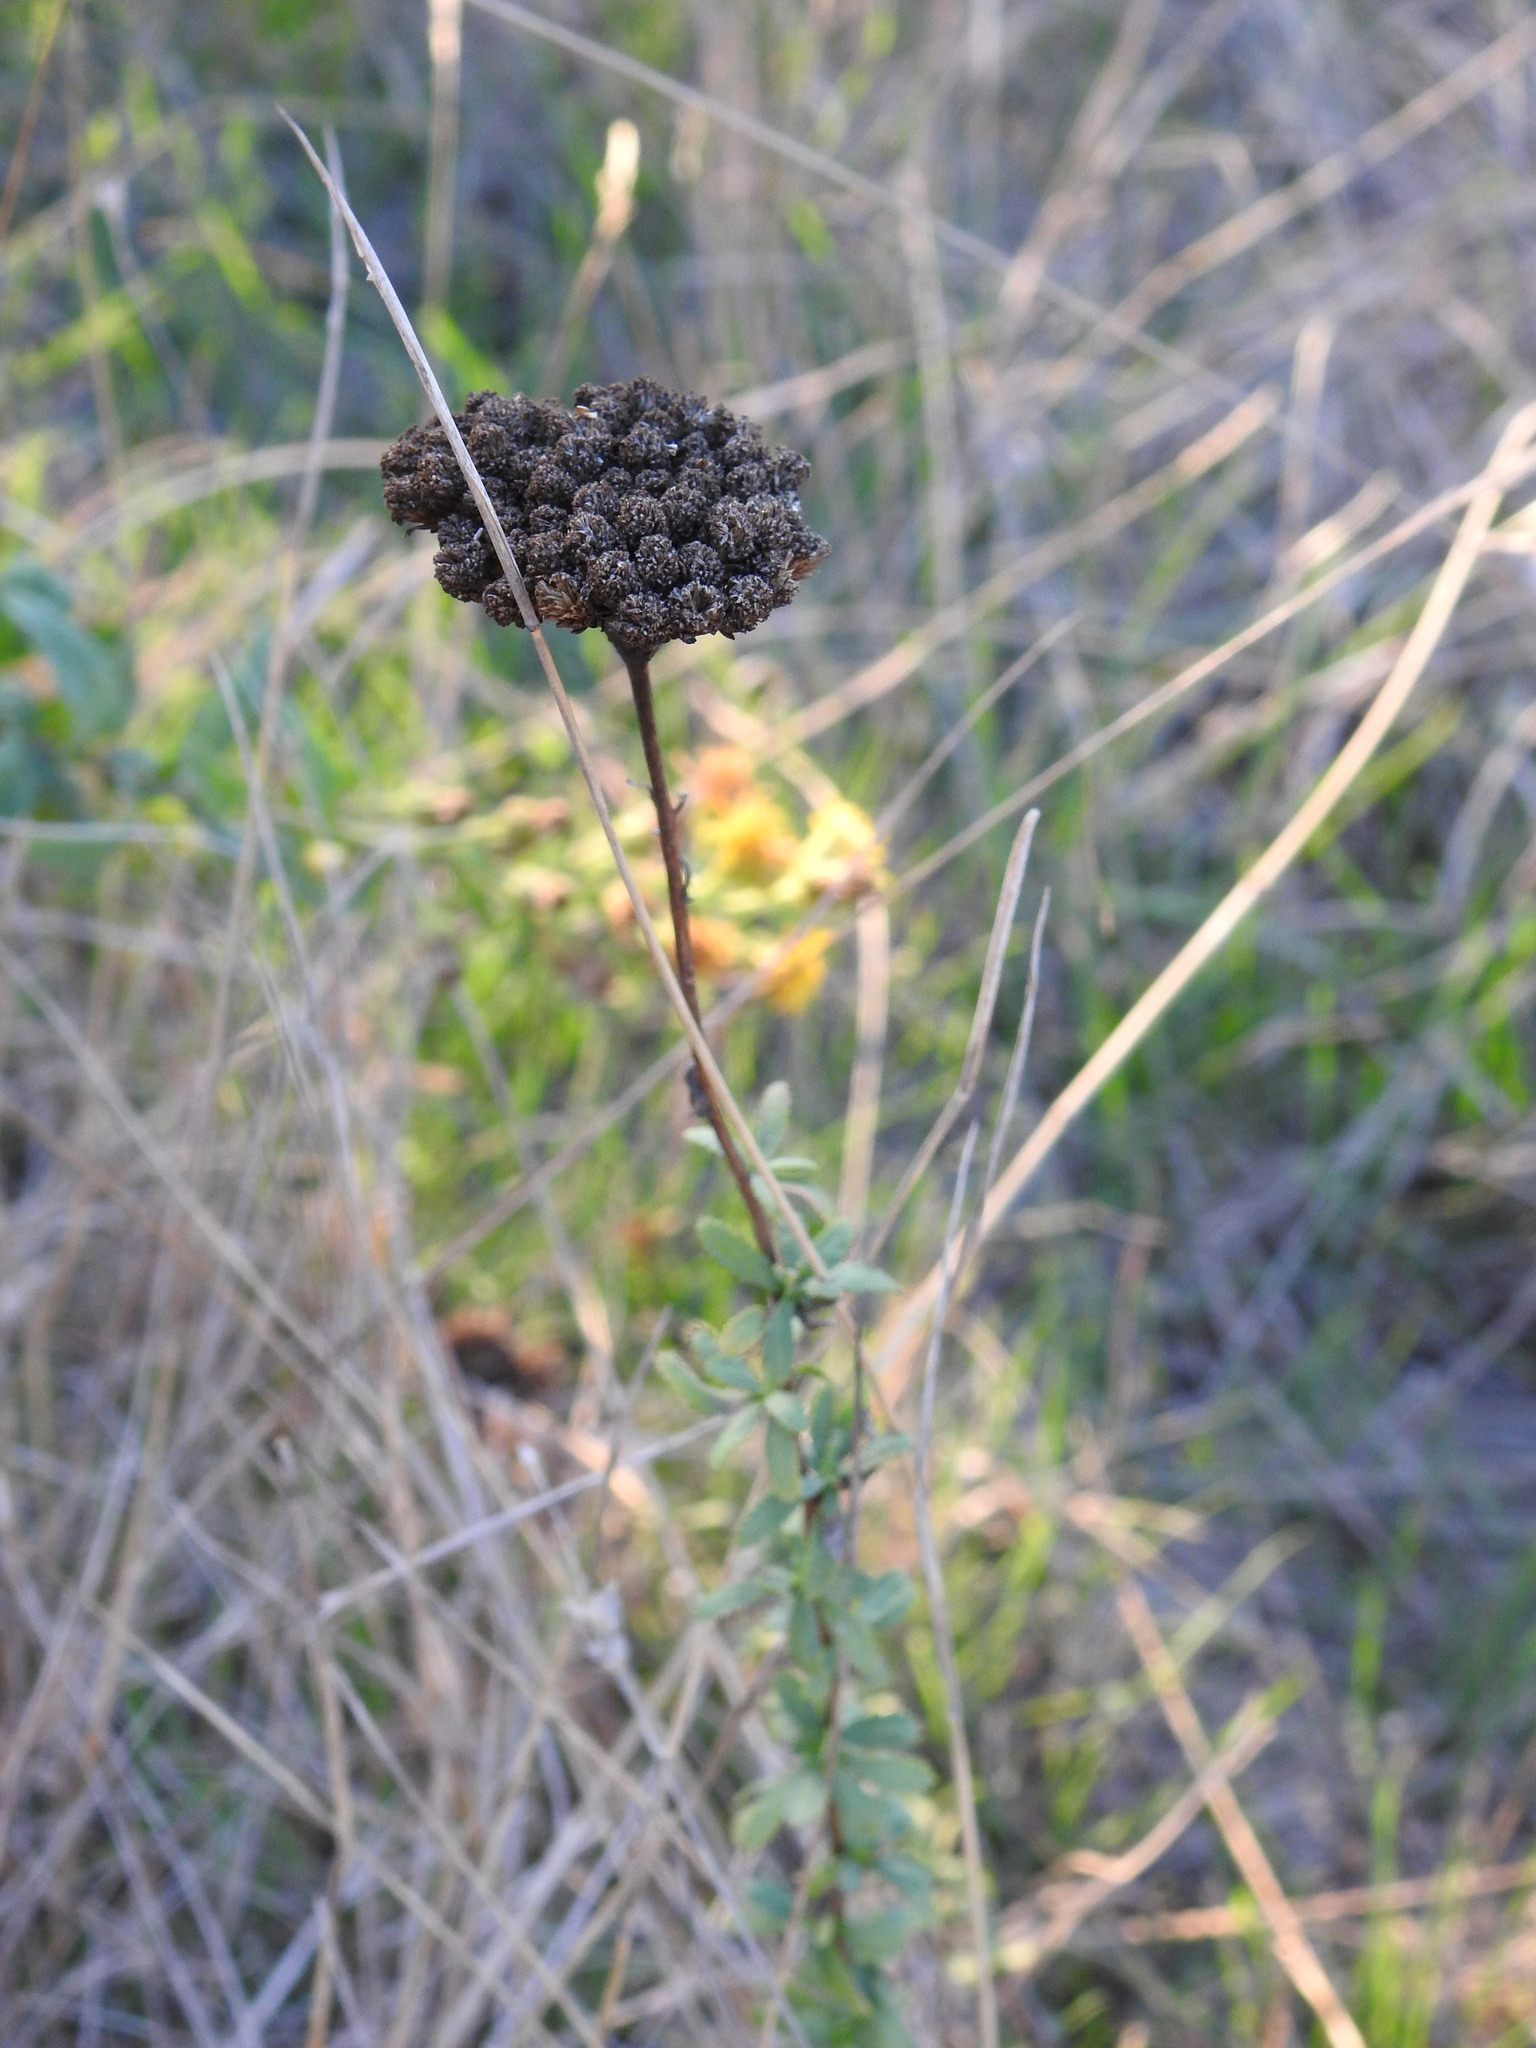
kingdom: Plantae
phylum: Tracheophyta
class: Magnoliopsida
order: Asterales
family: Asteraceae
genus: Achillea
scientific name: Achillea ageratum
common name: Sweet-nancy
